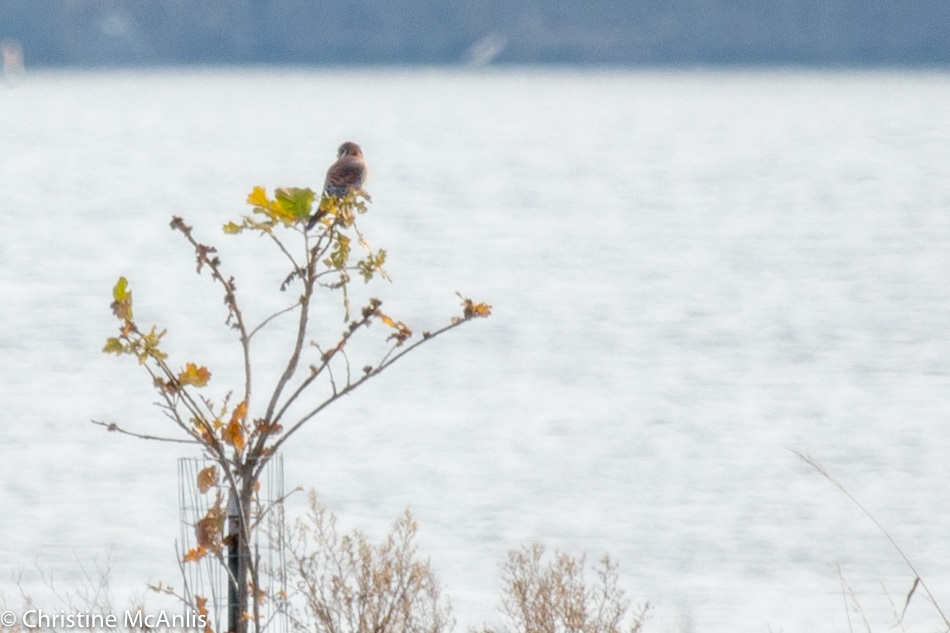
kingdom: Animalia
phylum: Chordata
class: Aves
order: Falconiformes
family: Falconidae
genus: Falco
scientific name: Falco sparverius
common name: American kestrel
